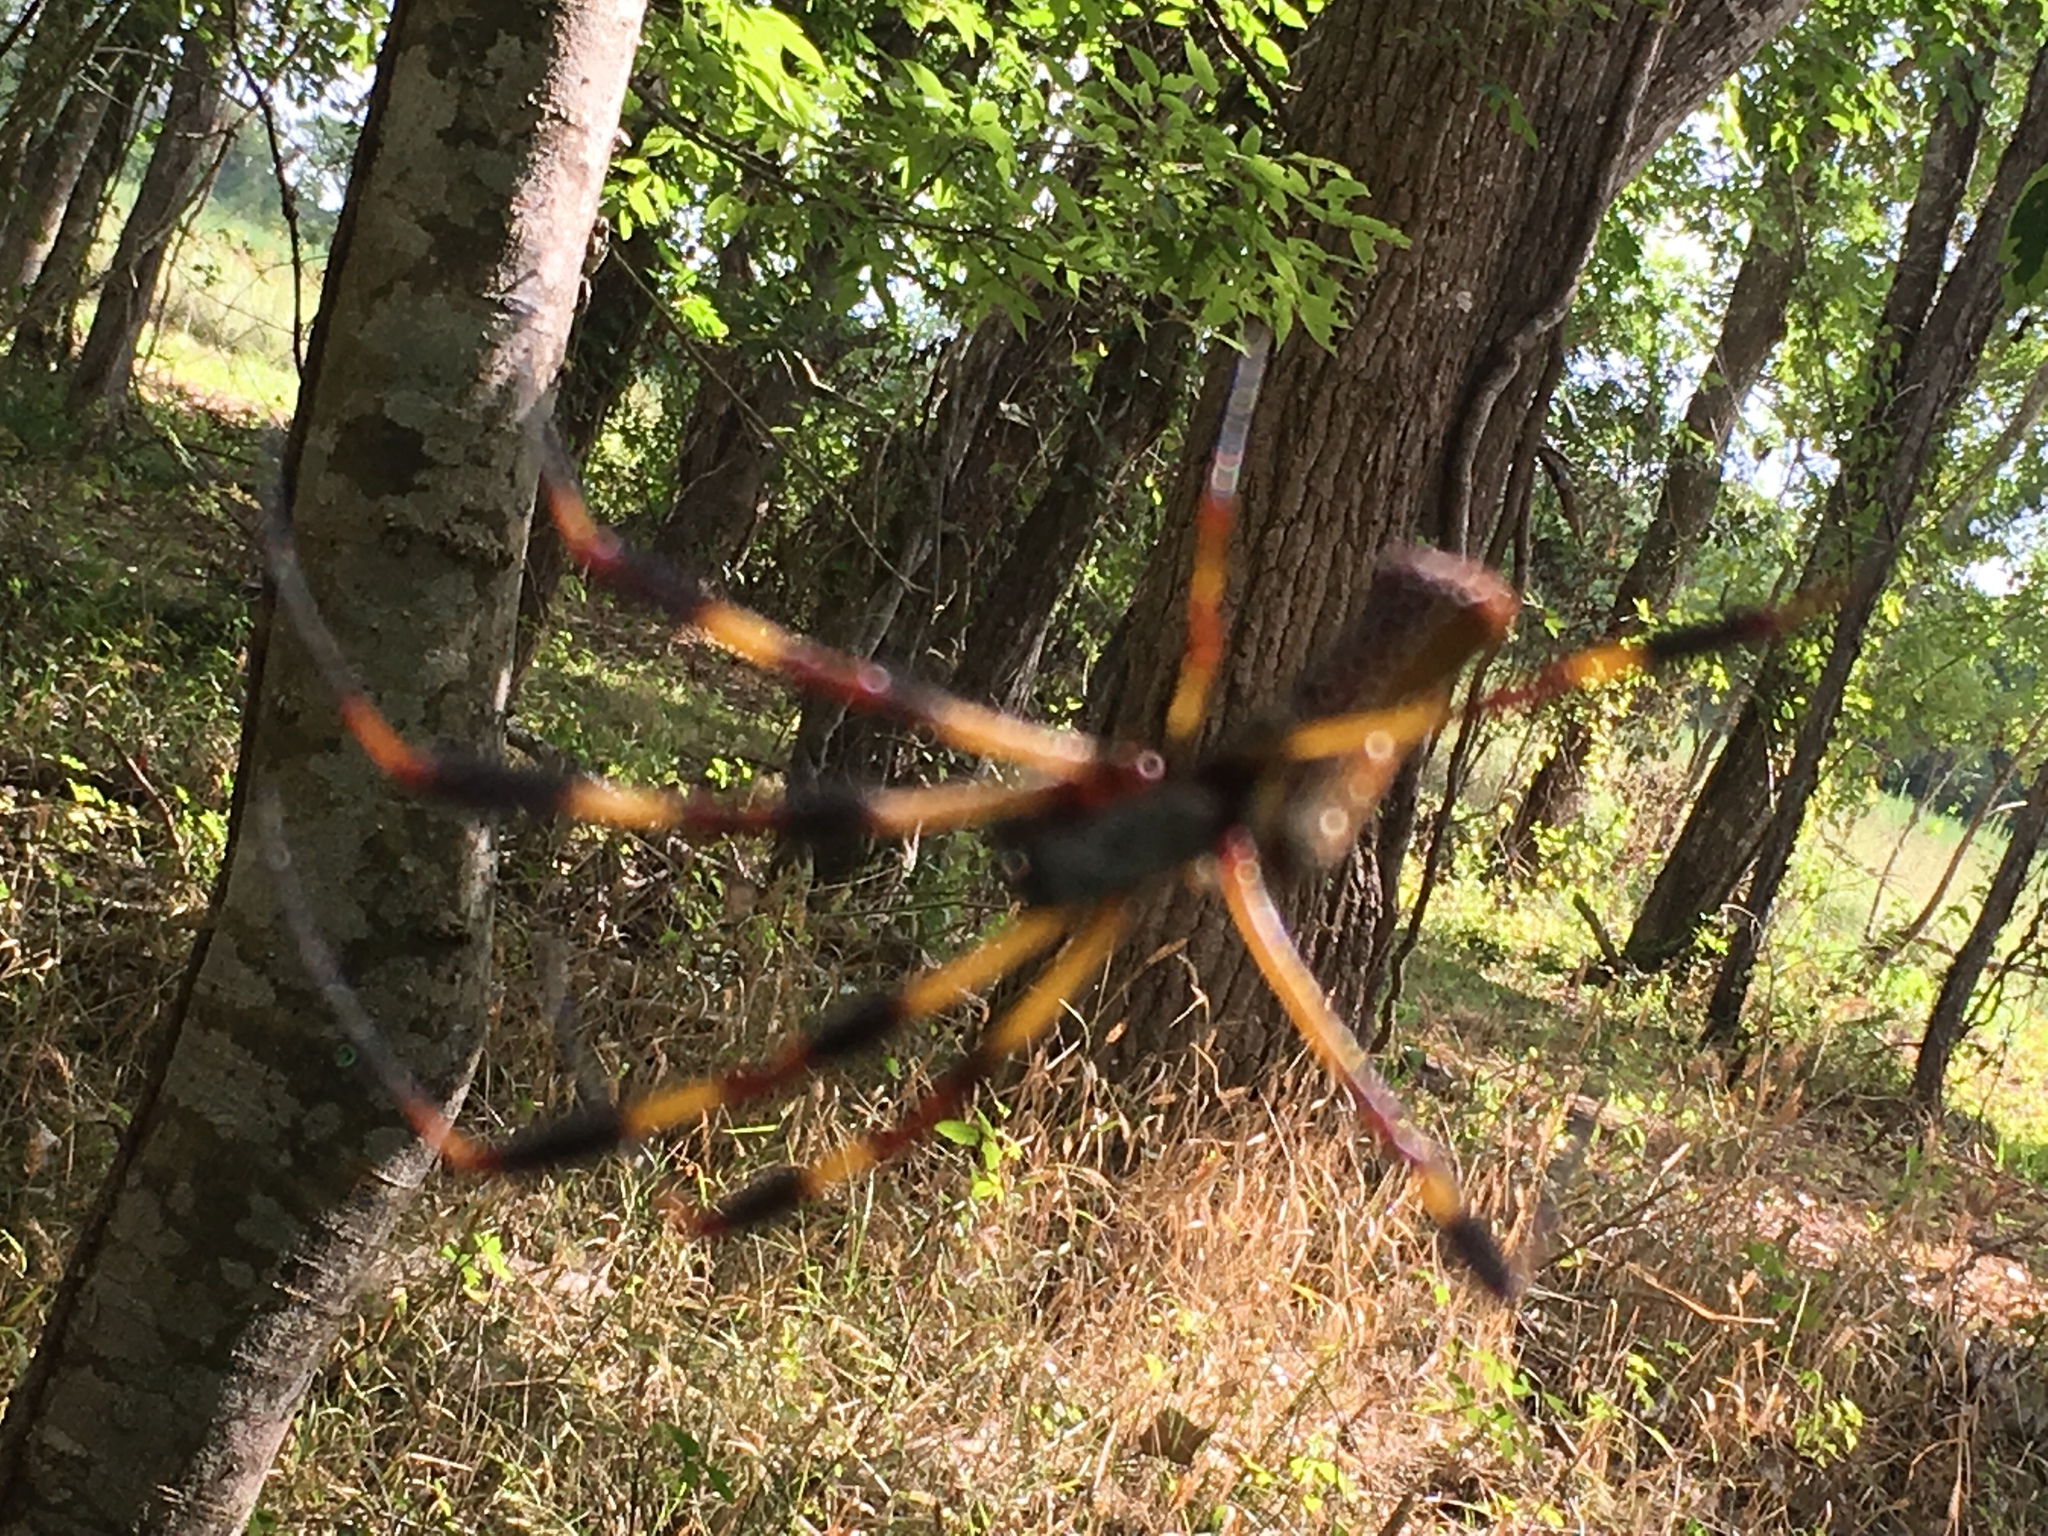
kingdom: Animalia
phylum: Arthropoda
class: Arachnida
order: Araneae
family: Araneidae
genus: Trichonephila
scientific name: Trichonephila clavipes
